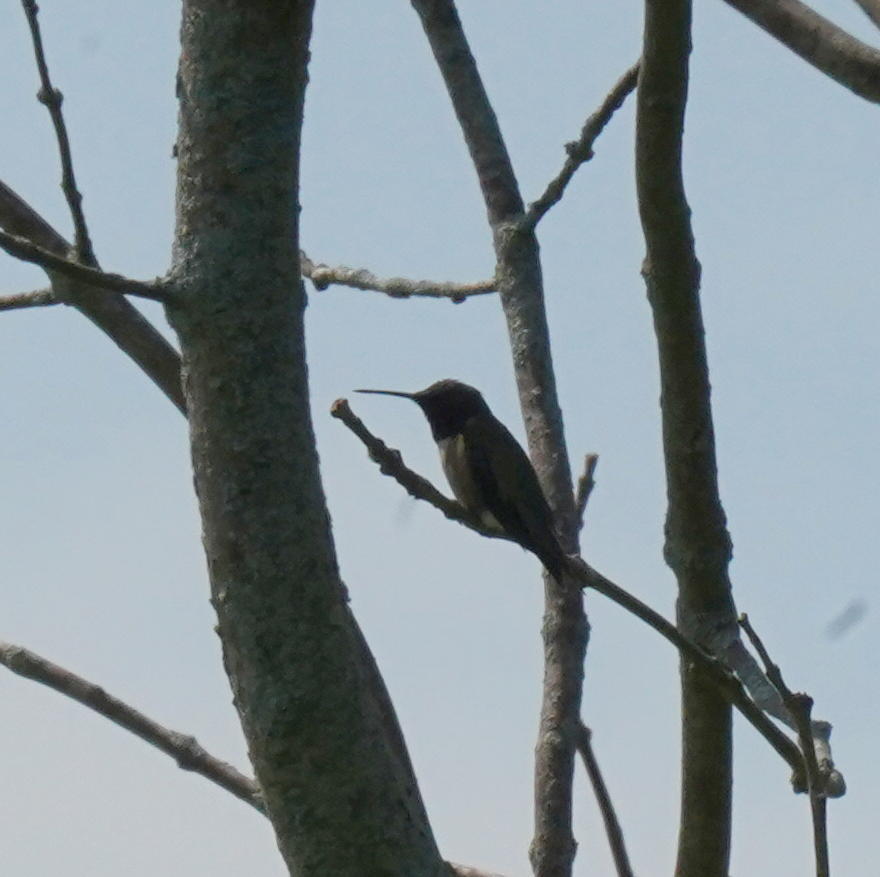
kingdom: Animalia
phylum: Chordata
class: Aves
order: Apodiformes
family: Trochilidae
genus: Archilochus
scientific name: Archilochus colubris
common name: Ruby-throated hummingbird
